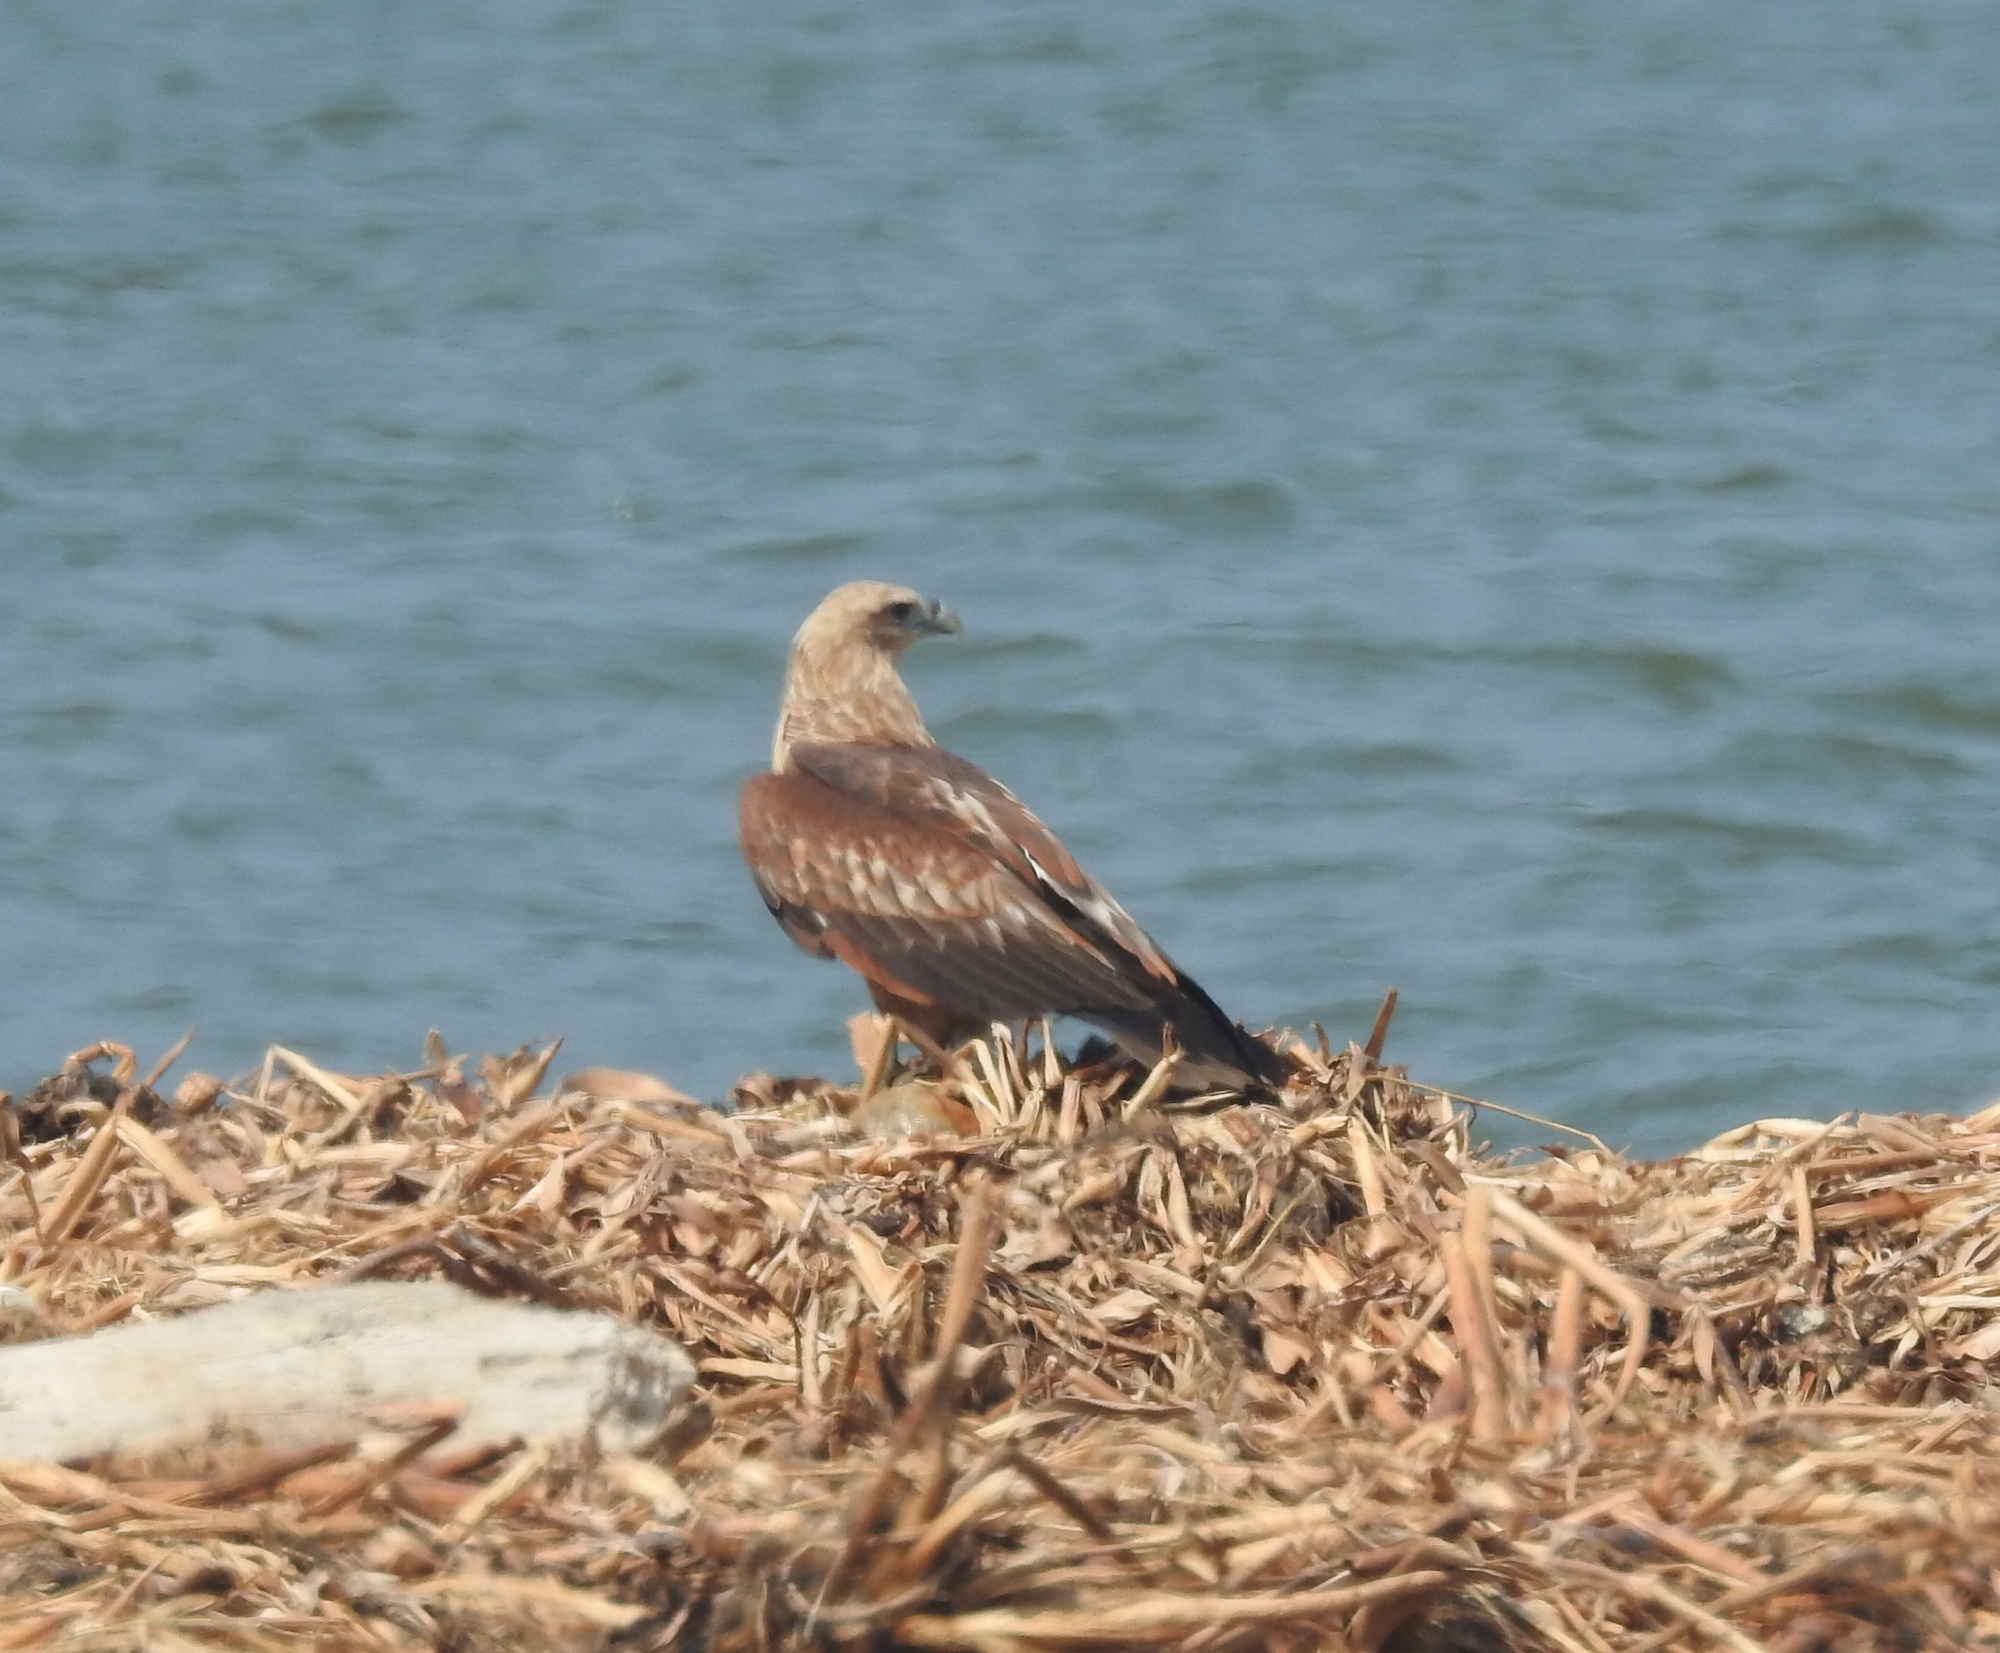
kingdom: Animalia
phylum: Chordata
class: Aves
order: Accipitriformes
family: Accipitridae
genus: Haliastur
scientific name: Haliastur indus
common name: Brahminy kite
